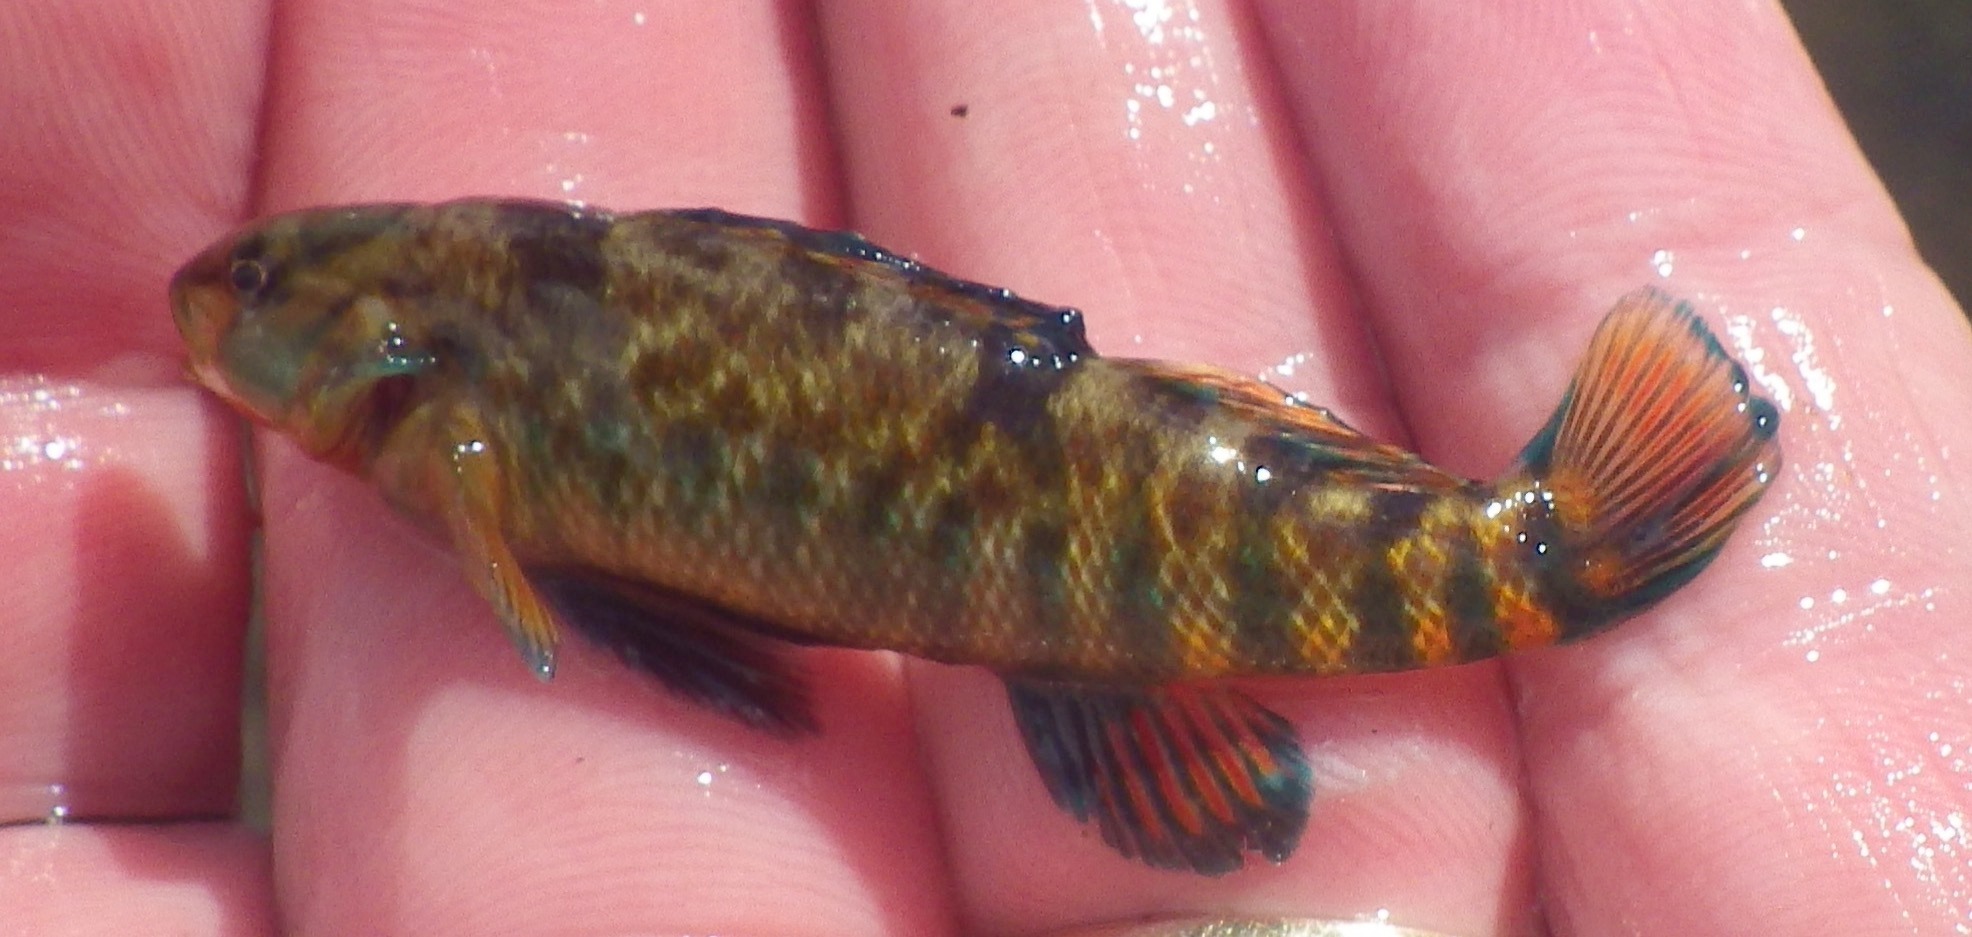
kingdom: Animalia
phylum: Chordata
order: Perciformes
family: Percidae
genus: Etheostoma
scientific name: Etheostoma caeruleum
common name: Rainbow darter
